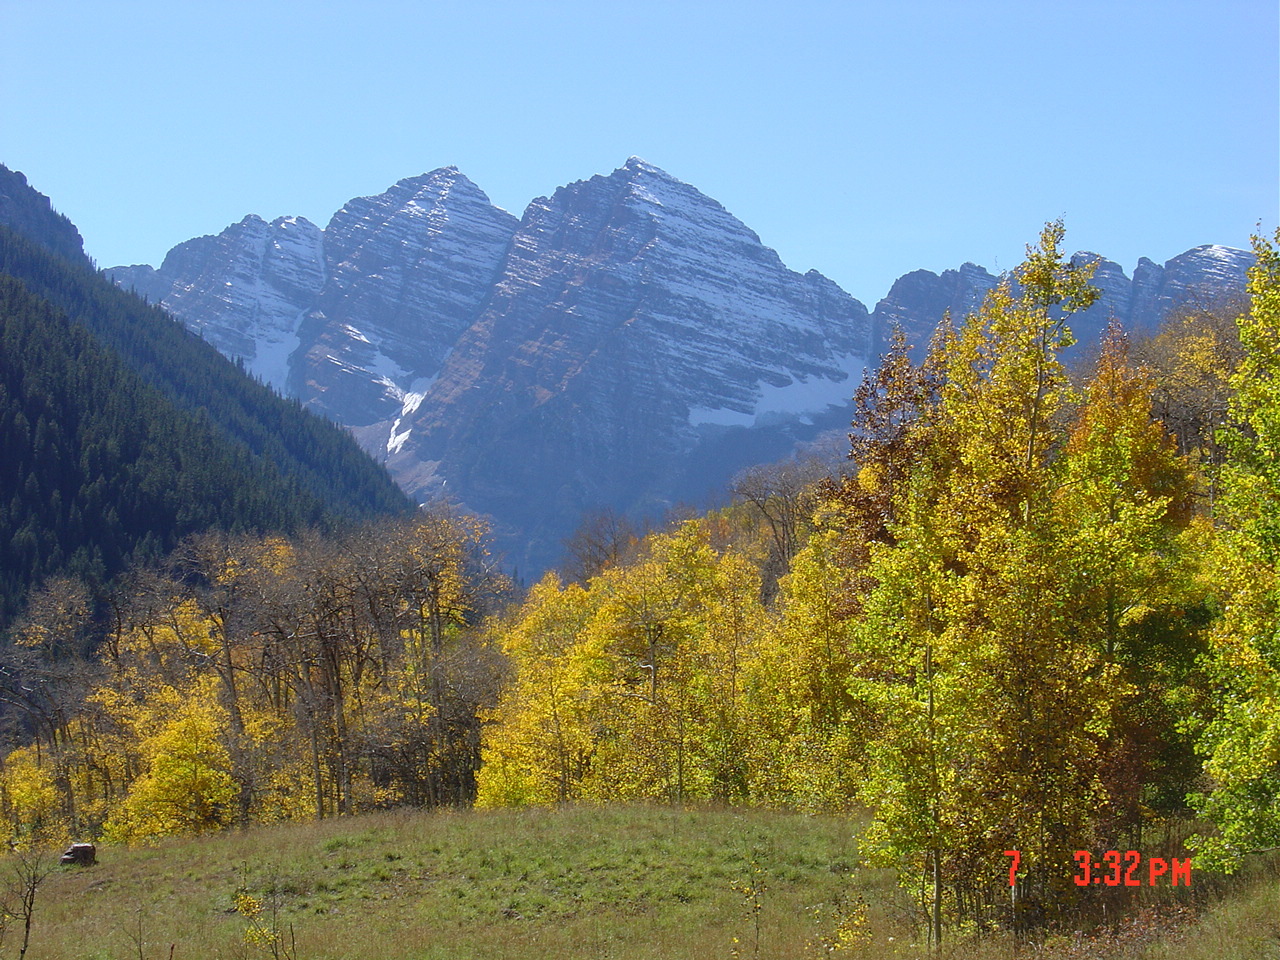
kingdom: Plantae
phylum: Tracheophyta
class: Magnoliopsida
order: Malpighiales
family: Salicaceae
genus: Populus
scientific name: Populus tremuloides
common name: Quaking aspen
